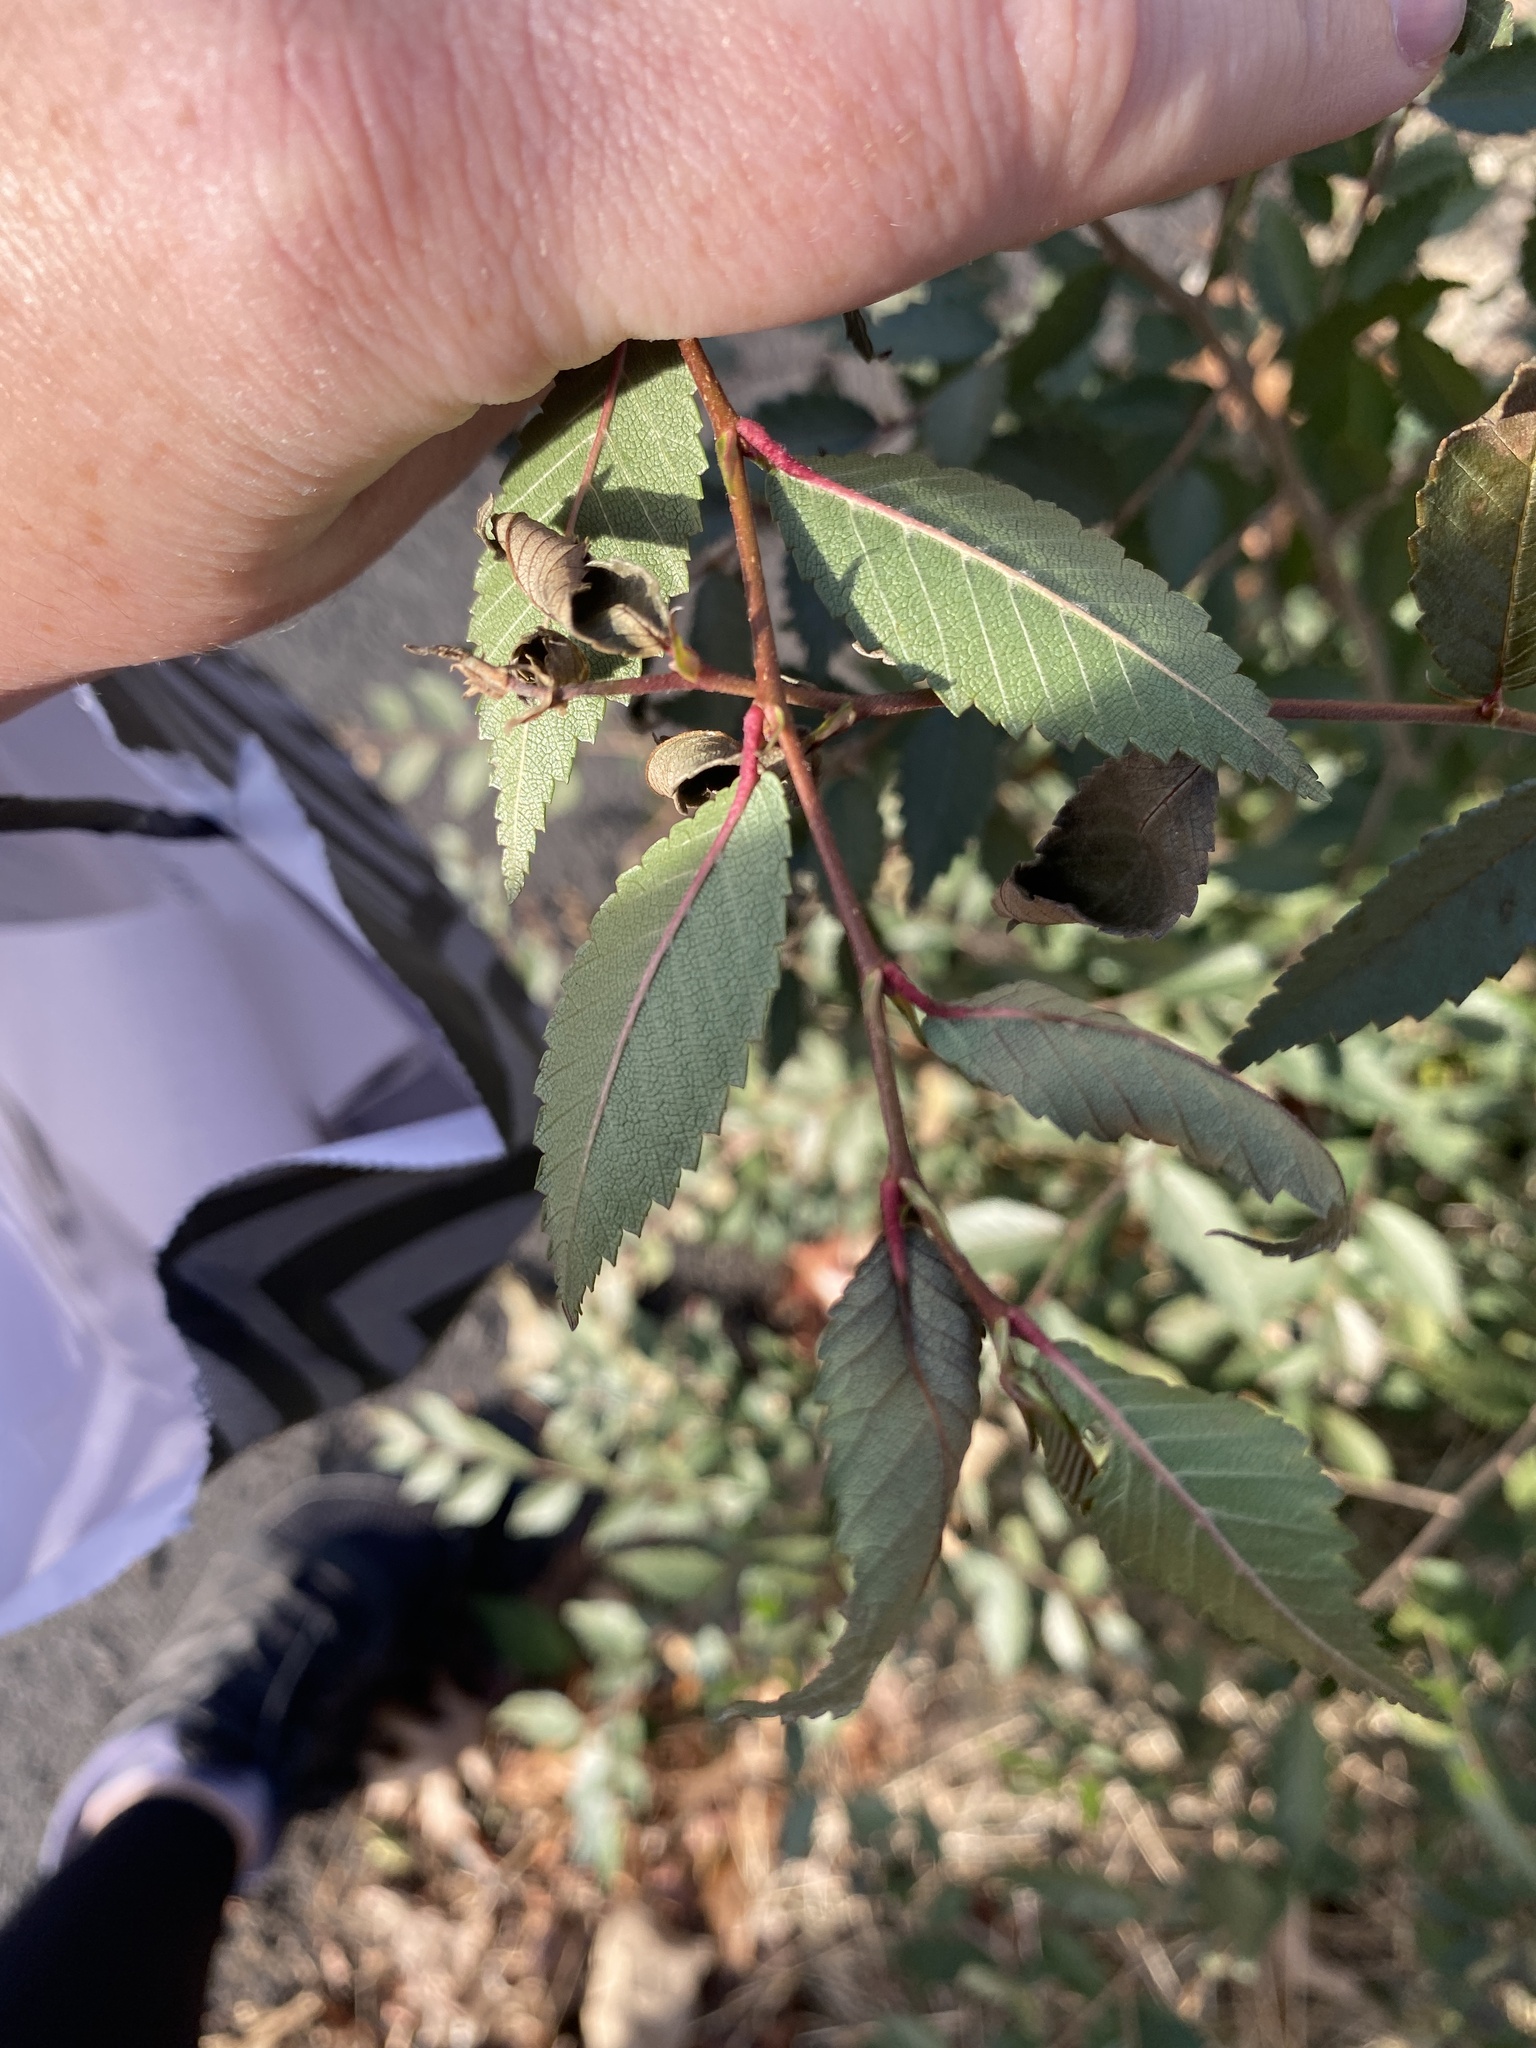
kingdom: Plantae
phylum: Tracheophyta
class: Magnoliopsida
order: Rosales
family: Ulmaceae
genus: Ulmus
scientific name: Ulmus pumila
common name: Siberian elm
